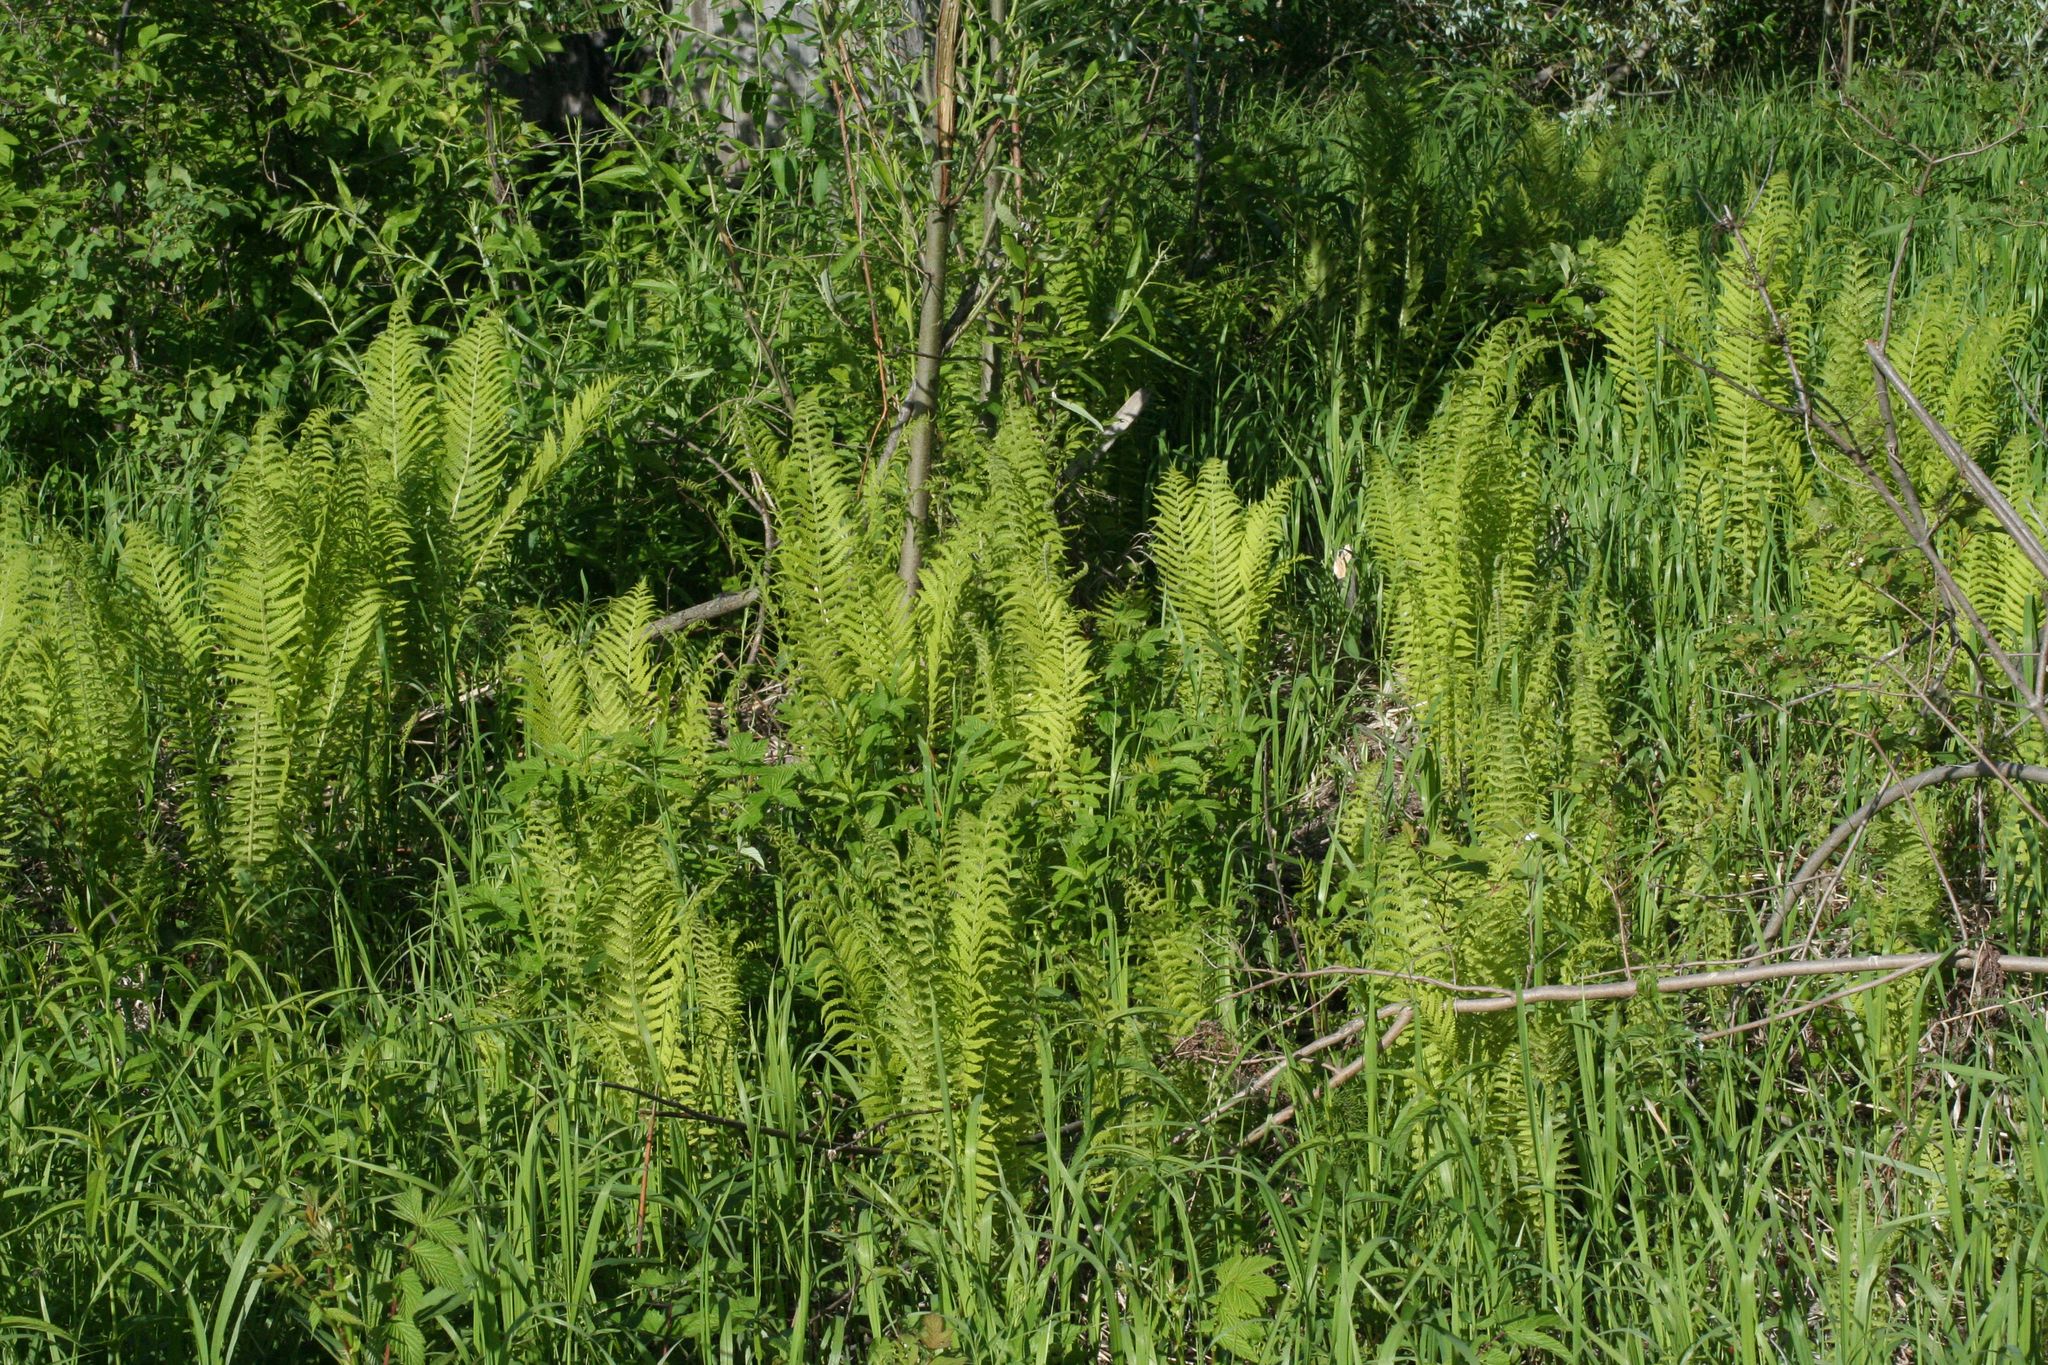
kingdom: Plantae
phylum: Tracheophyta
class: Polypodiopsida
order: Polypodiales
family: Onocleaceae
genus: Matteuccia
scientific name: Matteuccia struthiopteris
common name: Ostrich fern
